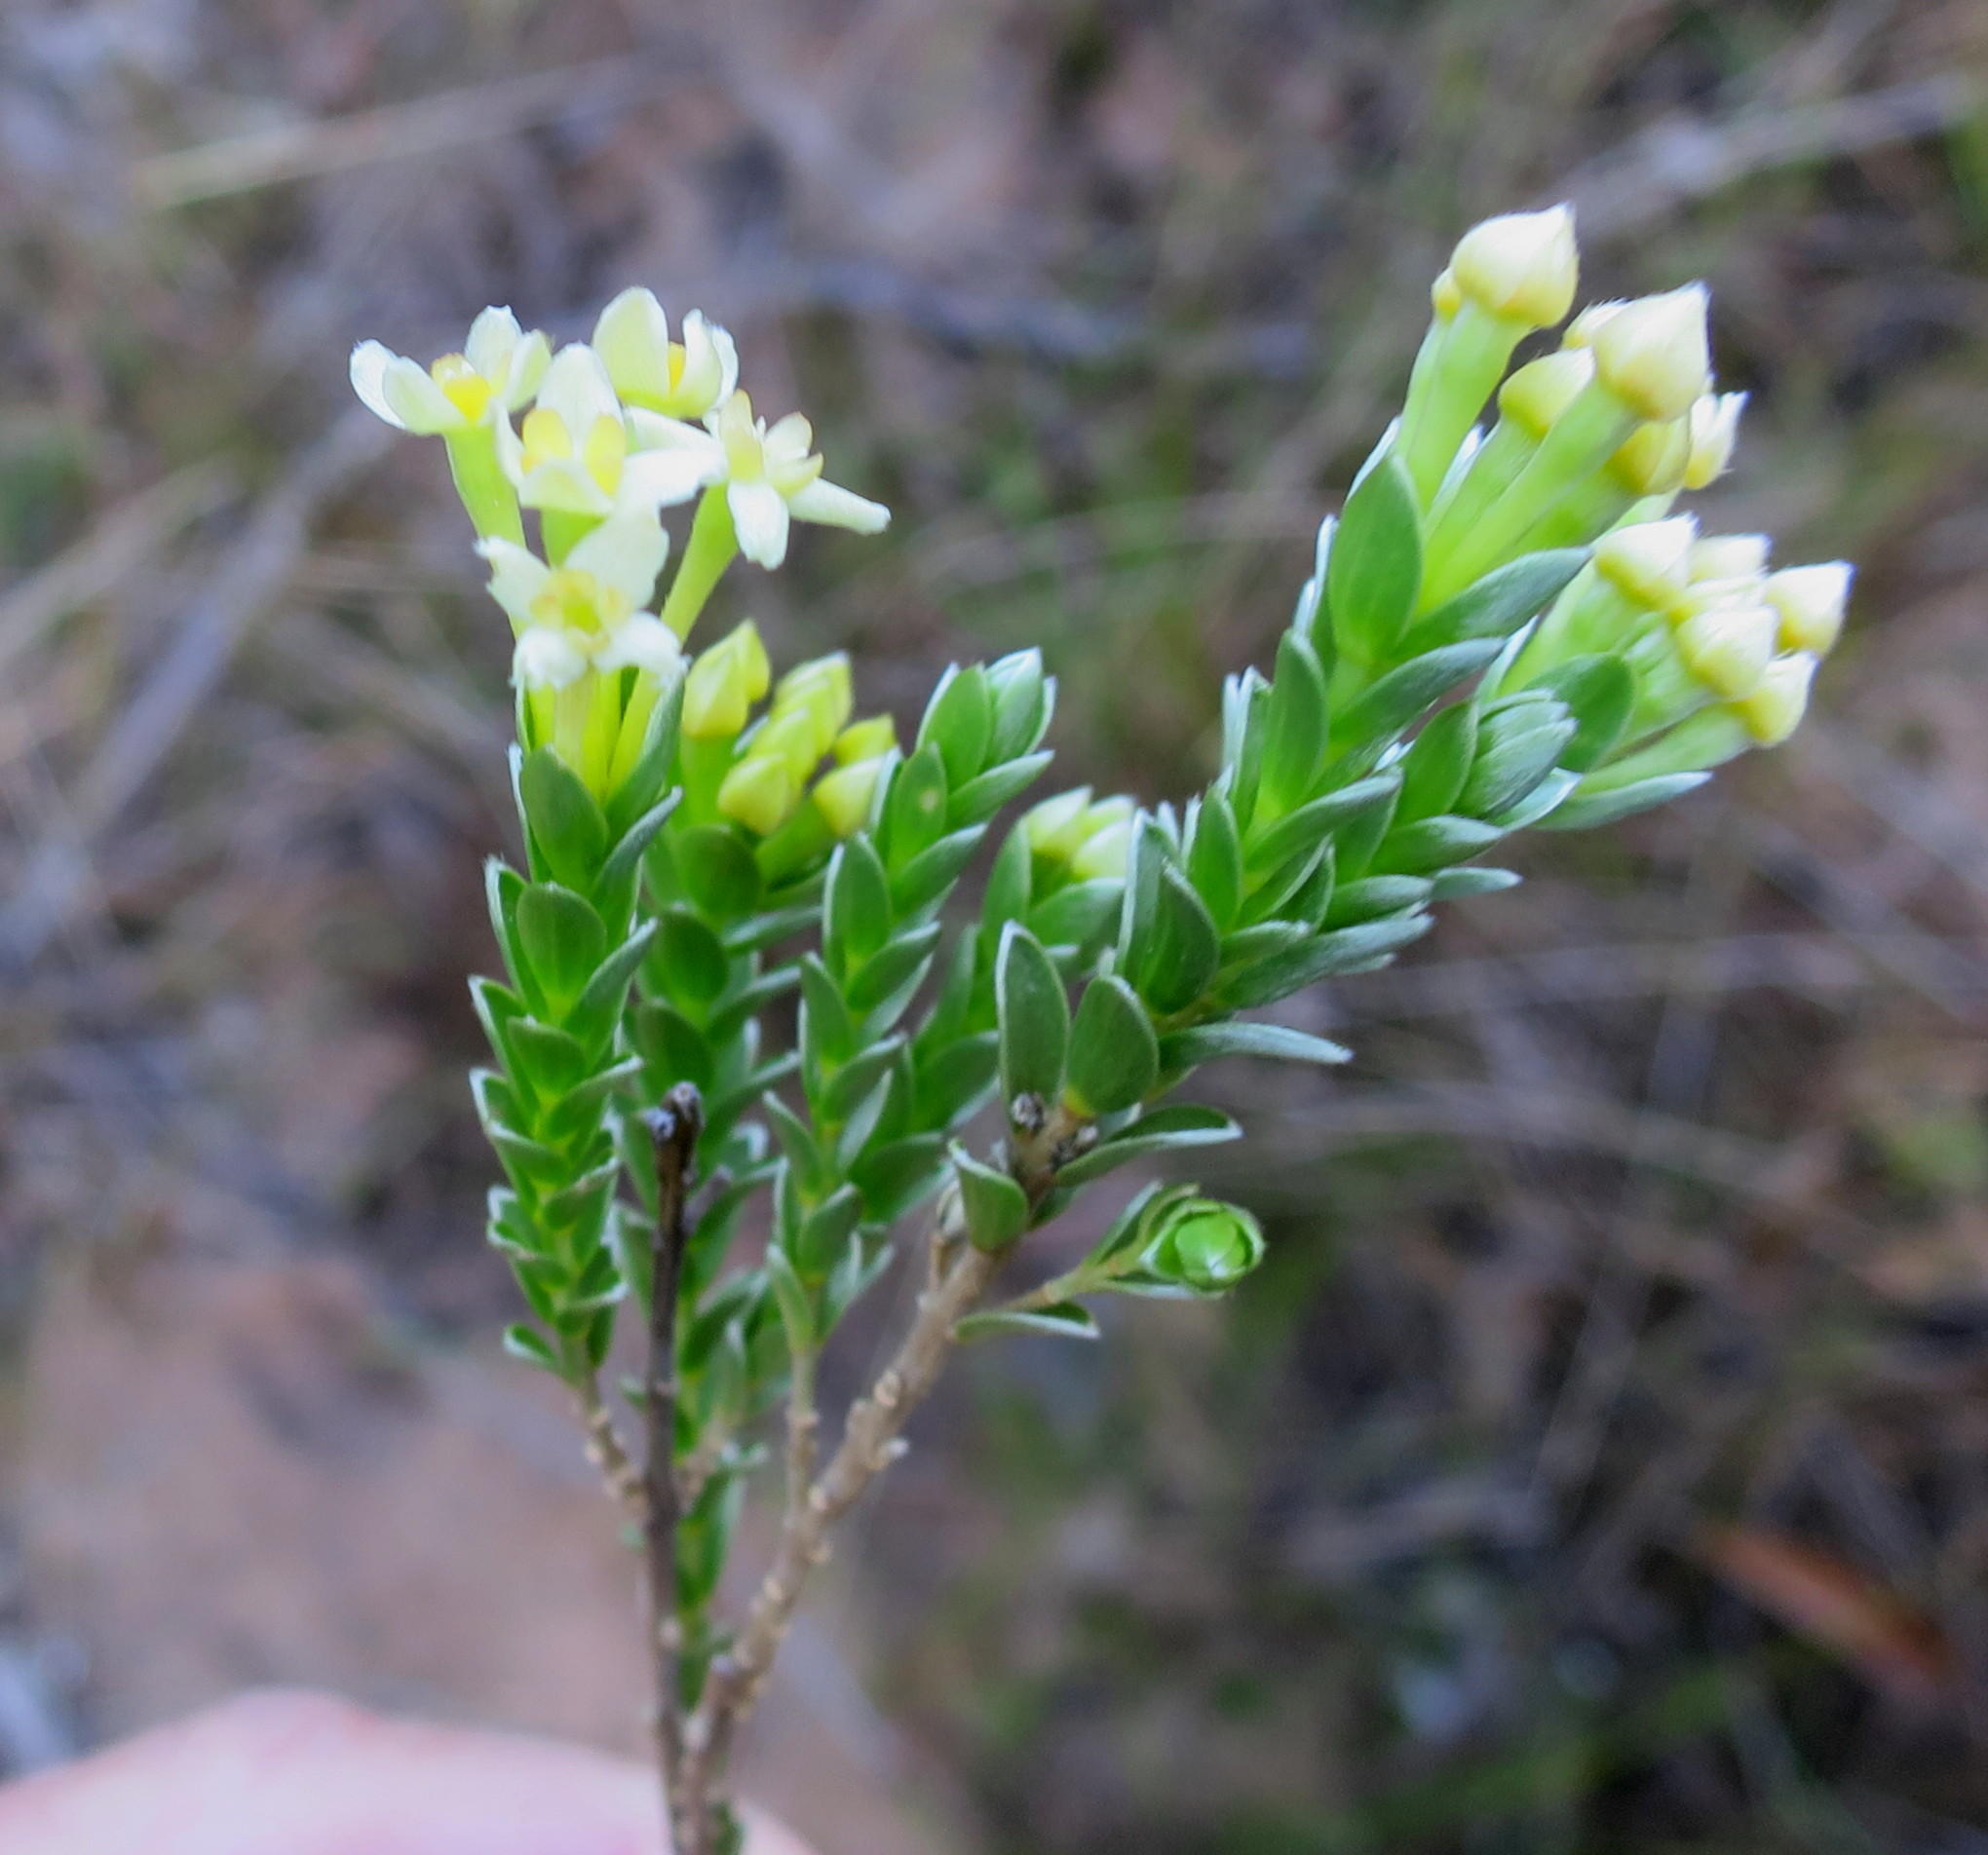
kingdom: Plantae
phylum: Tracheophyta
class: Magnoliopsida
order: Malvales
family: Thymelaeaceae
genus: Gnidia
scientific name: Gnidia chrysophylla
